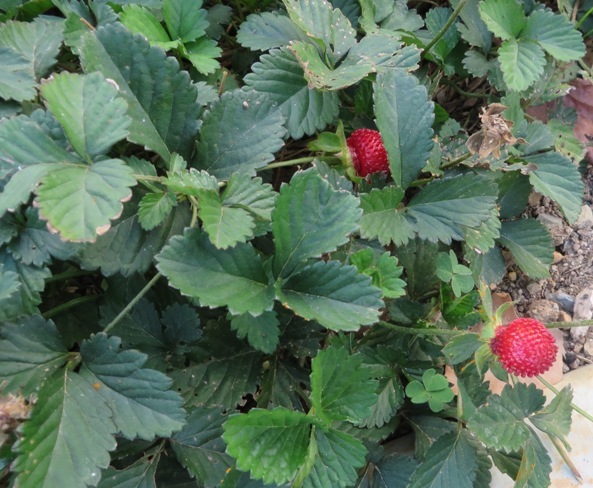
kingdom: Plantae
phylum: Tracheophyta
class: Magnoliopsida
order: Rosales
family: Rosaceae
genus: Potentilla
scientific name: Potentilla indica
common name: Yellow-flowered strawberry
